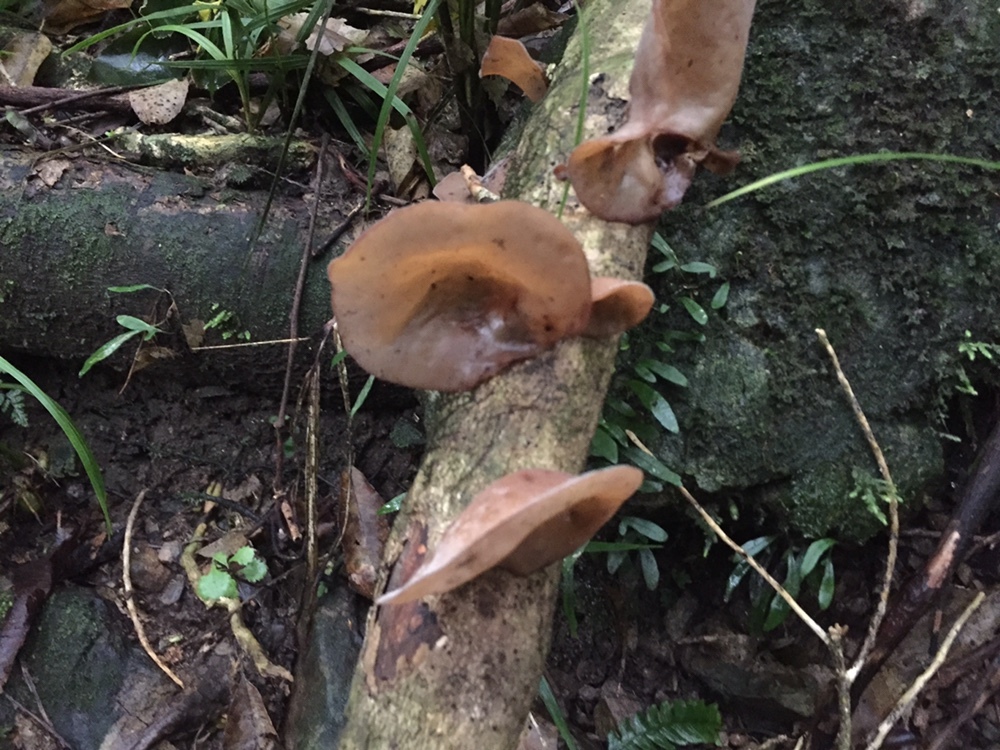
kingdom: Fungi
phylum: Basidiomycota
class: Agaricomycetes
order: Auriculariales
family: Auriculariaceae
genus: Auricularia
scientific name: Auricularia cornea
